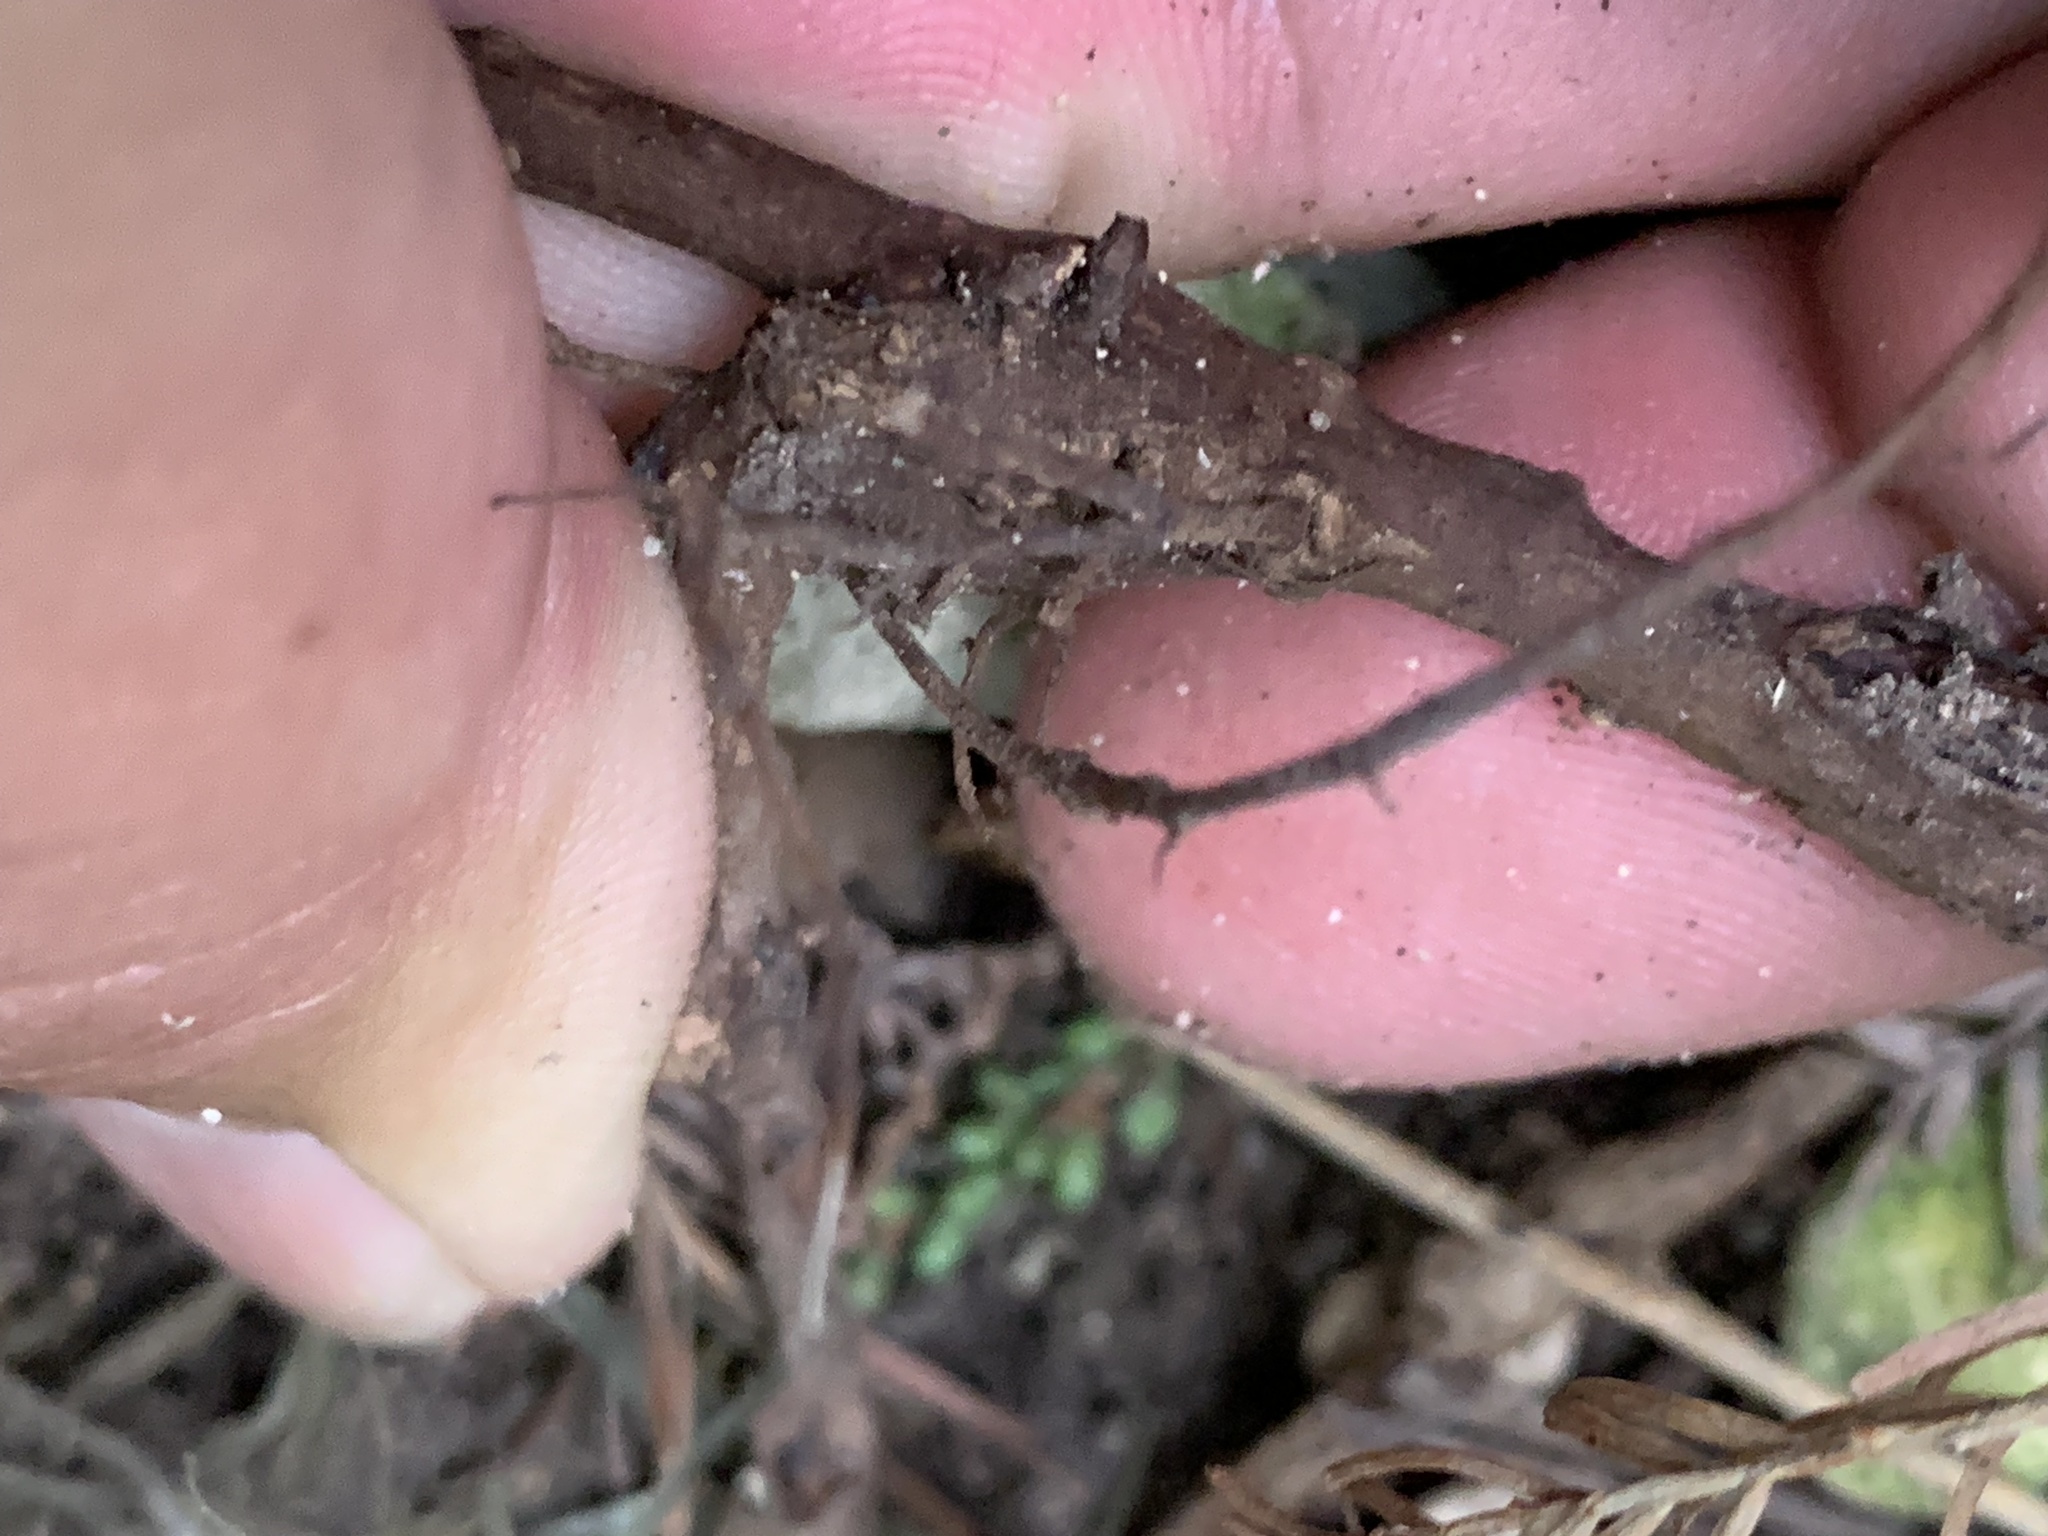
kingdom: Plantae
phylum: Tracheophyta
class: Magnoliopsida
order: Vitales
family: Vitaceae
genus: Parthenocissus
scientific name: Parthenocissus quinquefolia
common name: Virginia-creeper
